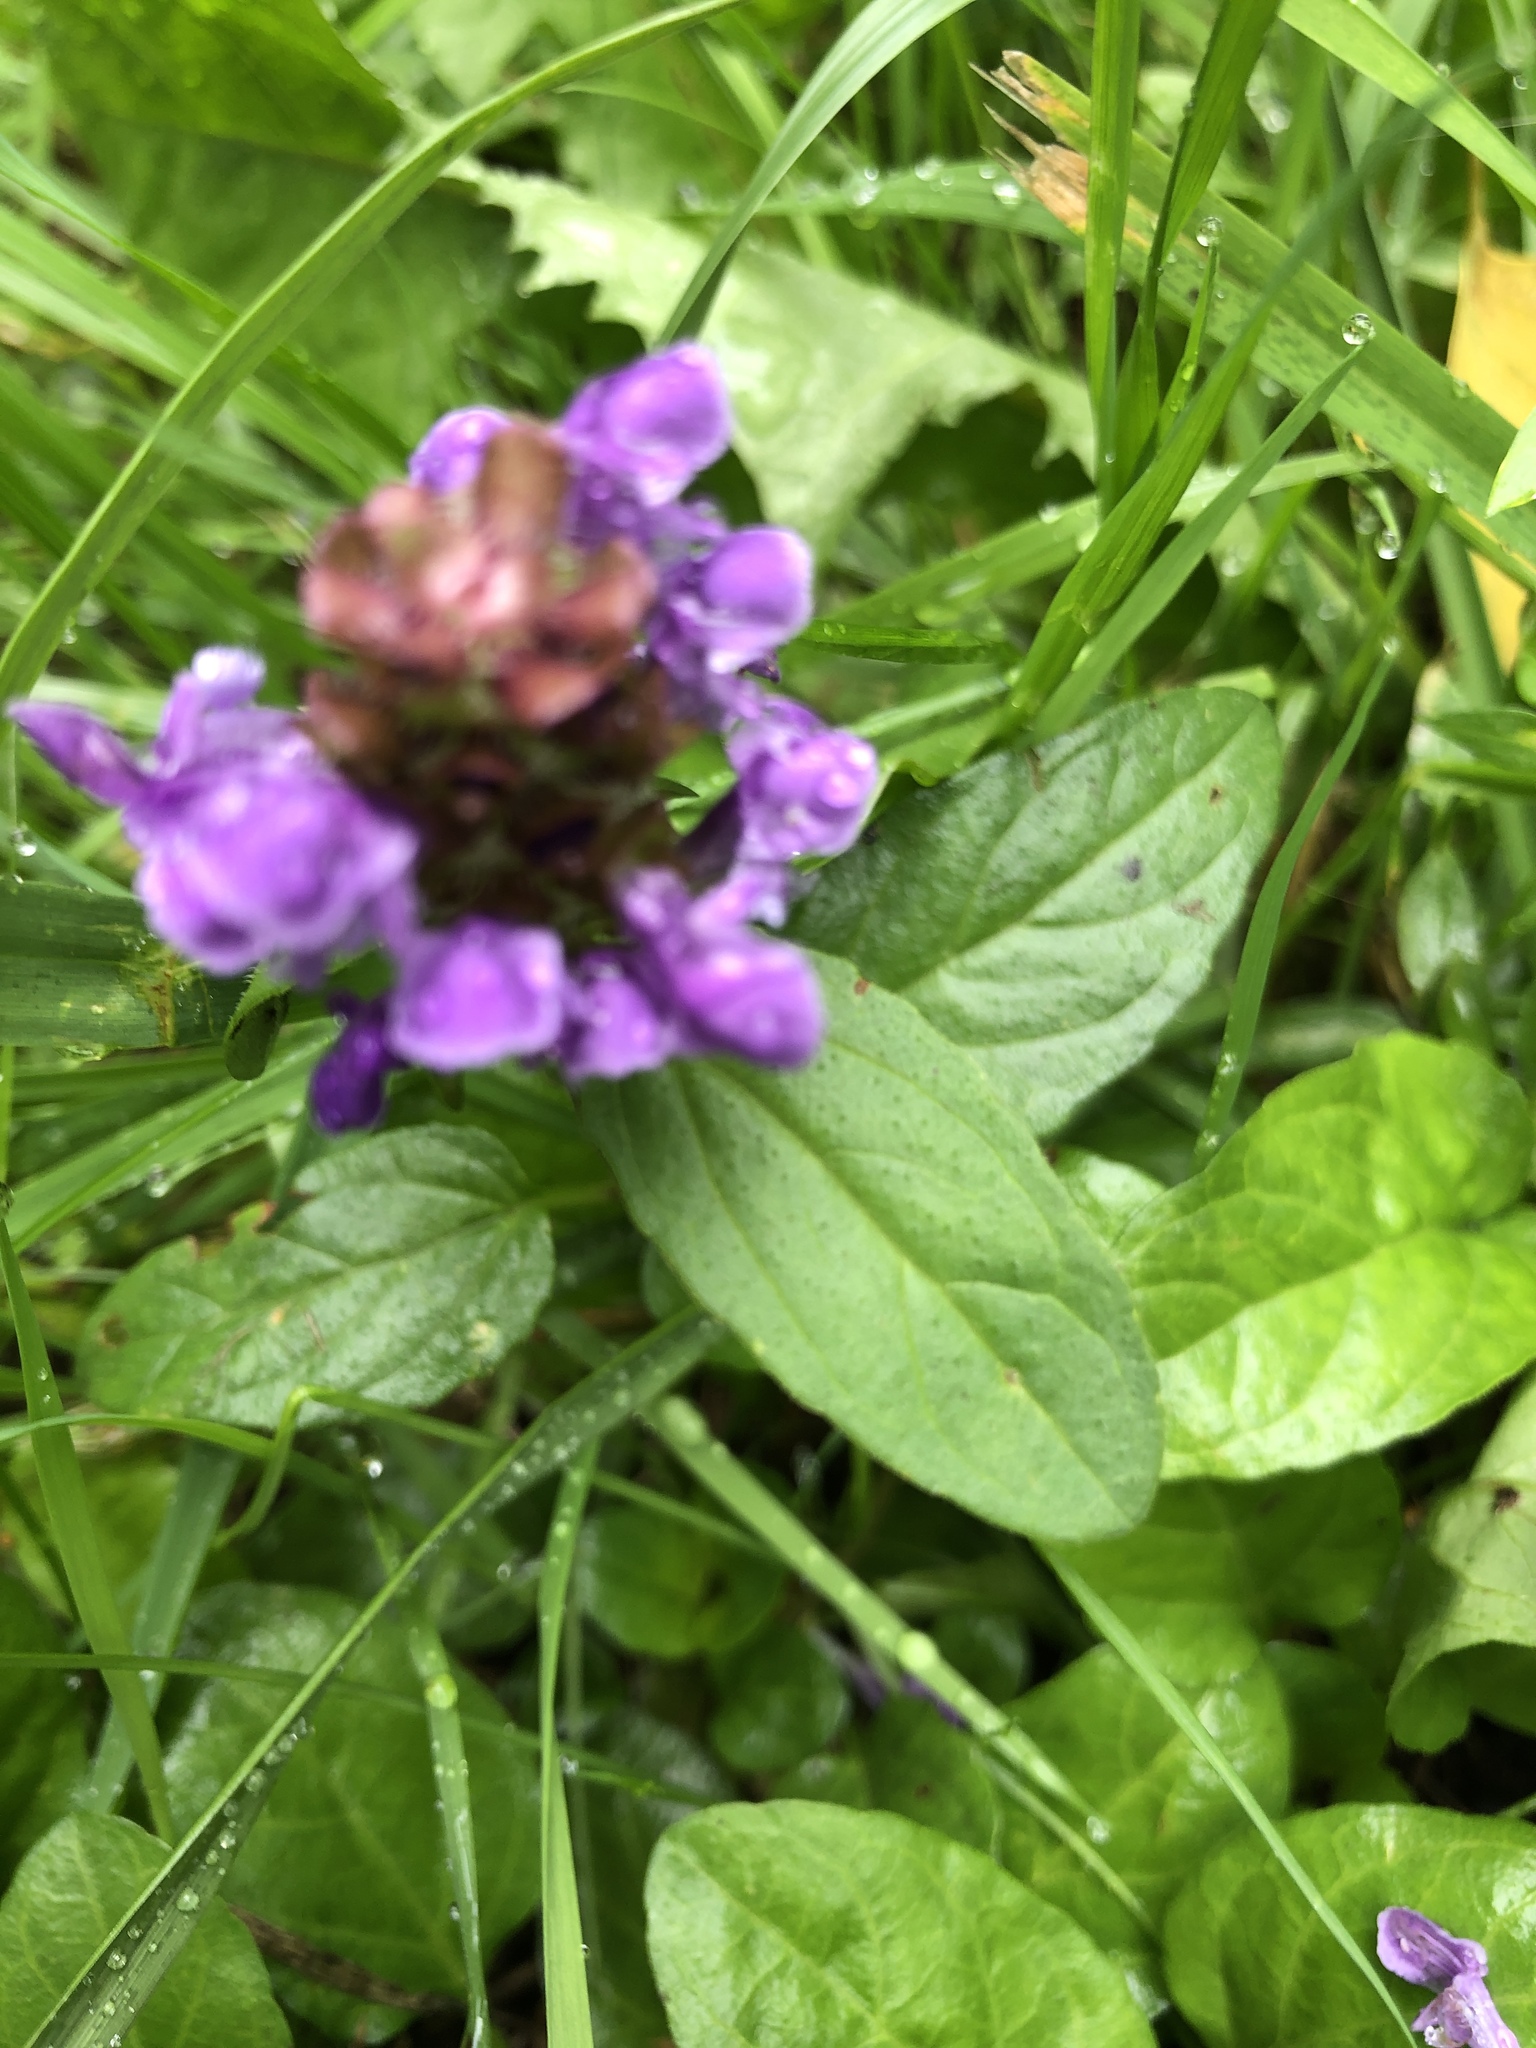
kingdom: Plantae
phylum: Tracheophyta
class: Magnoliopsida
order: Lamiales
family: Lamiaceae
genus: Prunella
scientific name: Prunella vulgaris
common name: Heal-all
